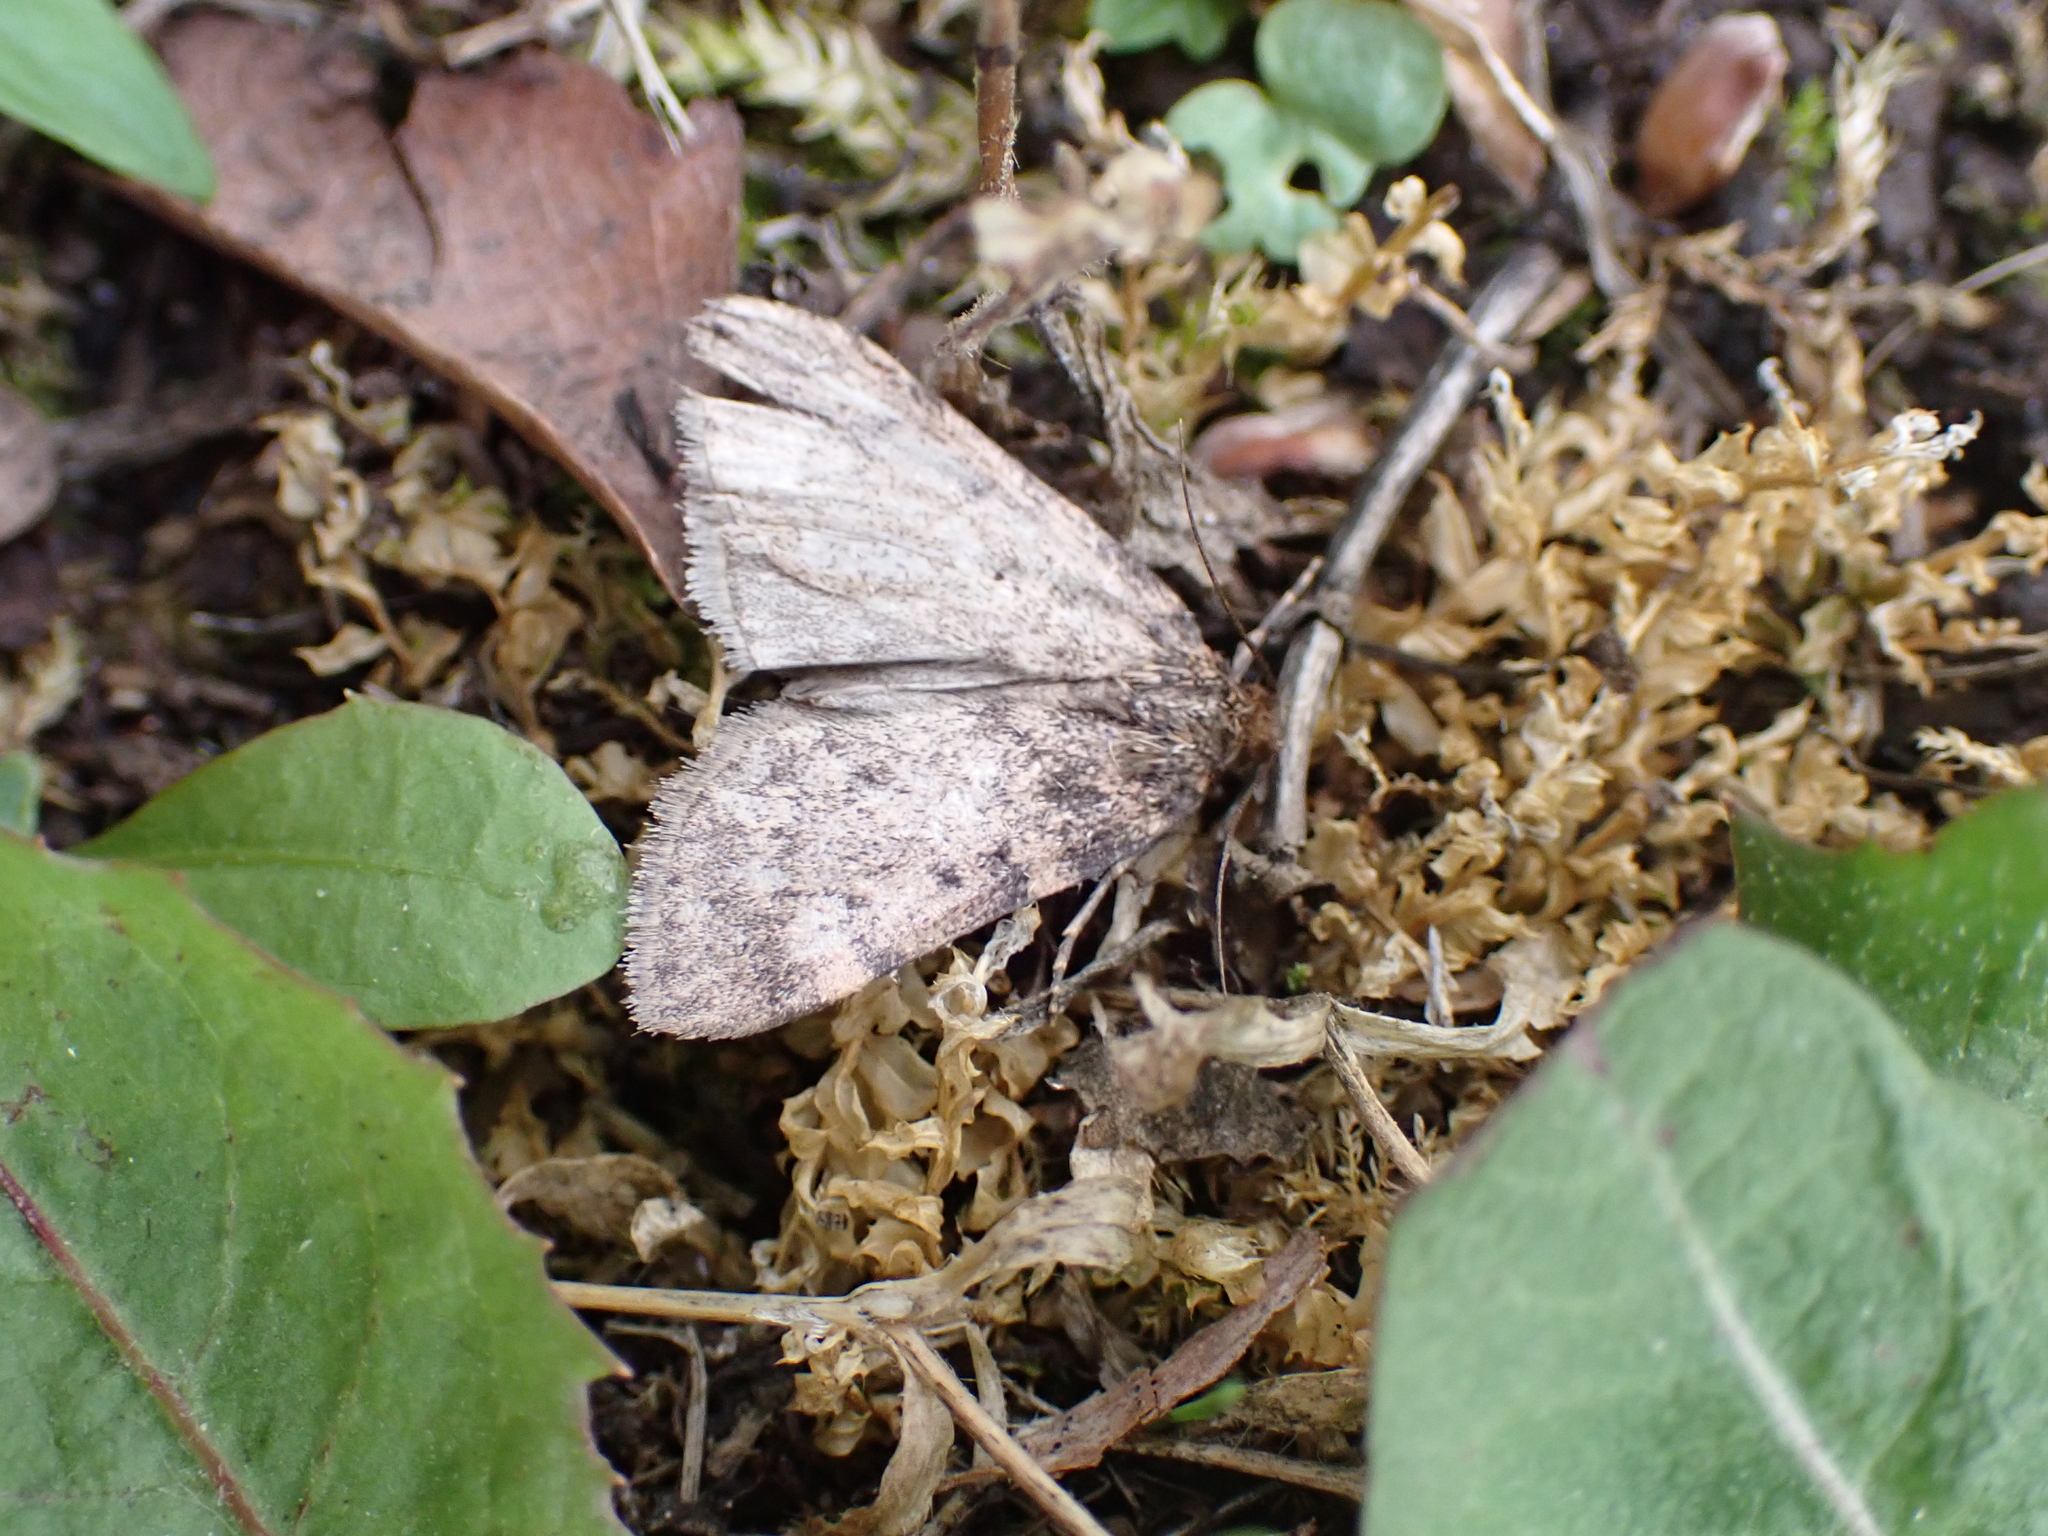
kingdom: Animalia
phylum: Arthropoda
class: Insecta
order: Lepidoptera
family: Pyralidae
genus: Aglossa
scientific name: Aglossa pinguinalis
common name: Large tabby
